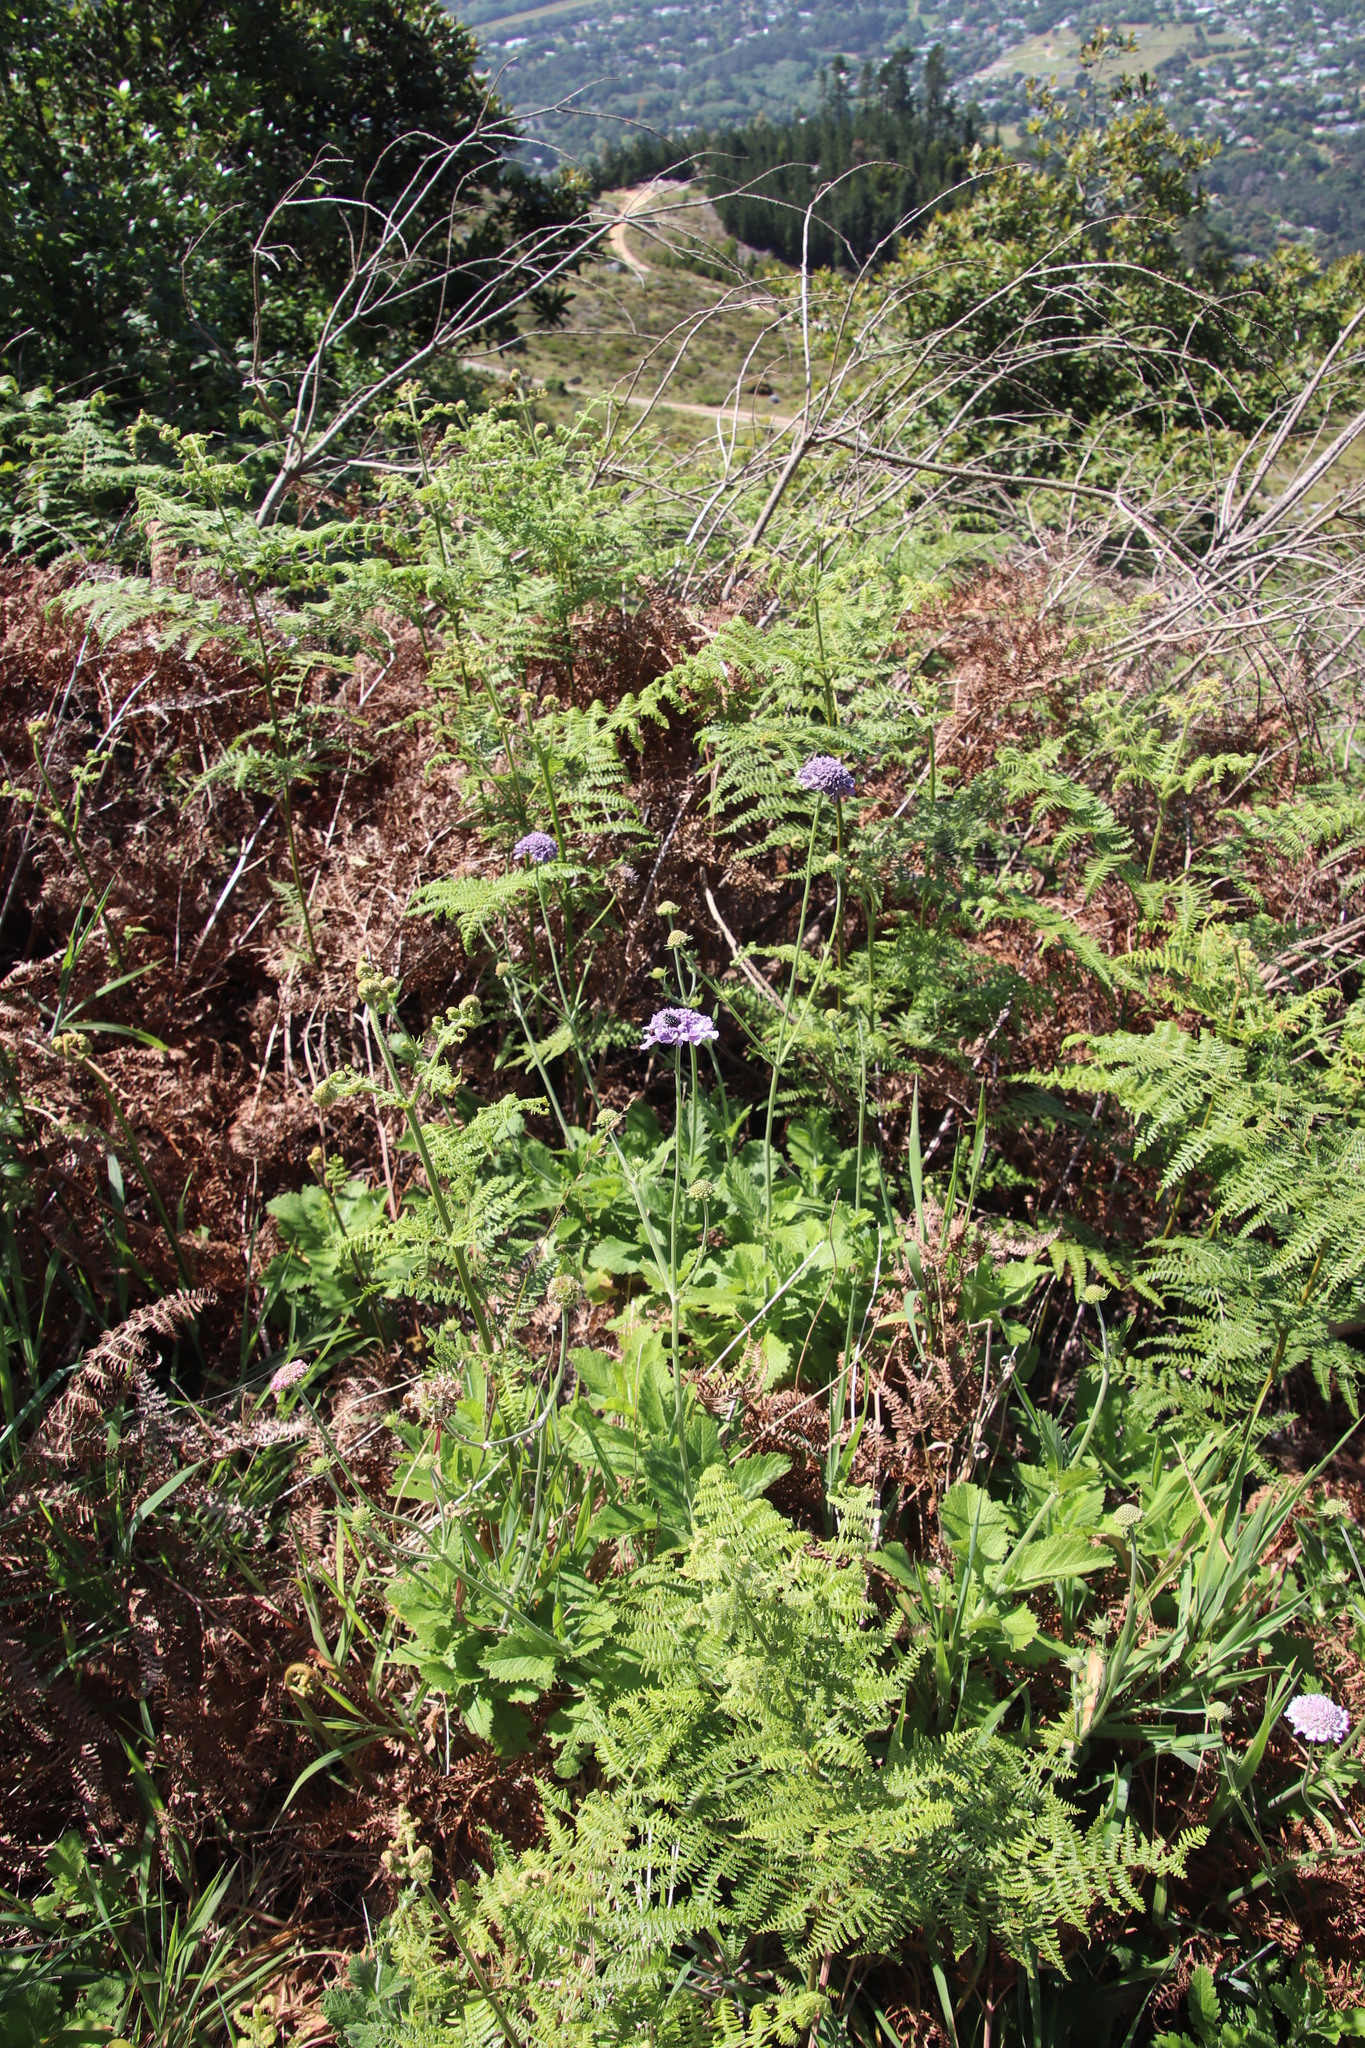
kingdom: Animalia
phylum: Arthropoda
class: Insecta
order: Coleoptera
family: Scarabaeidae
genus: Oxythyrea
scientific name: Oxythyrea
